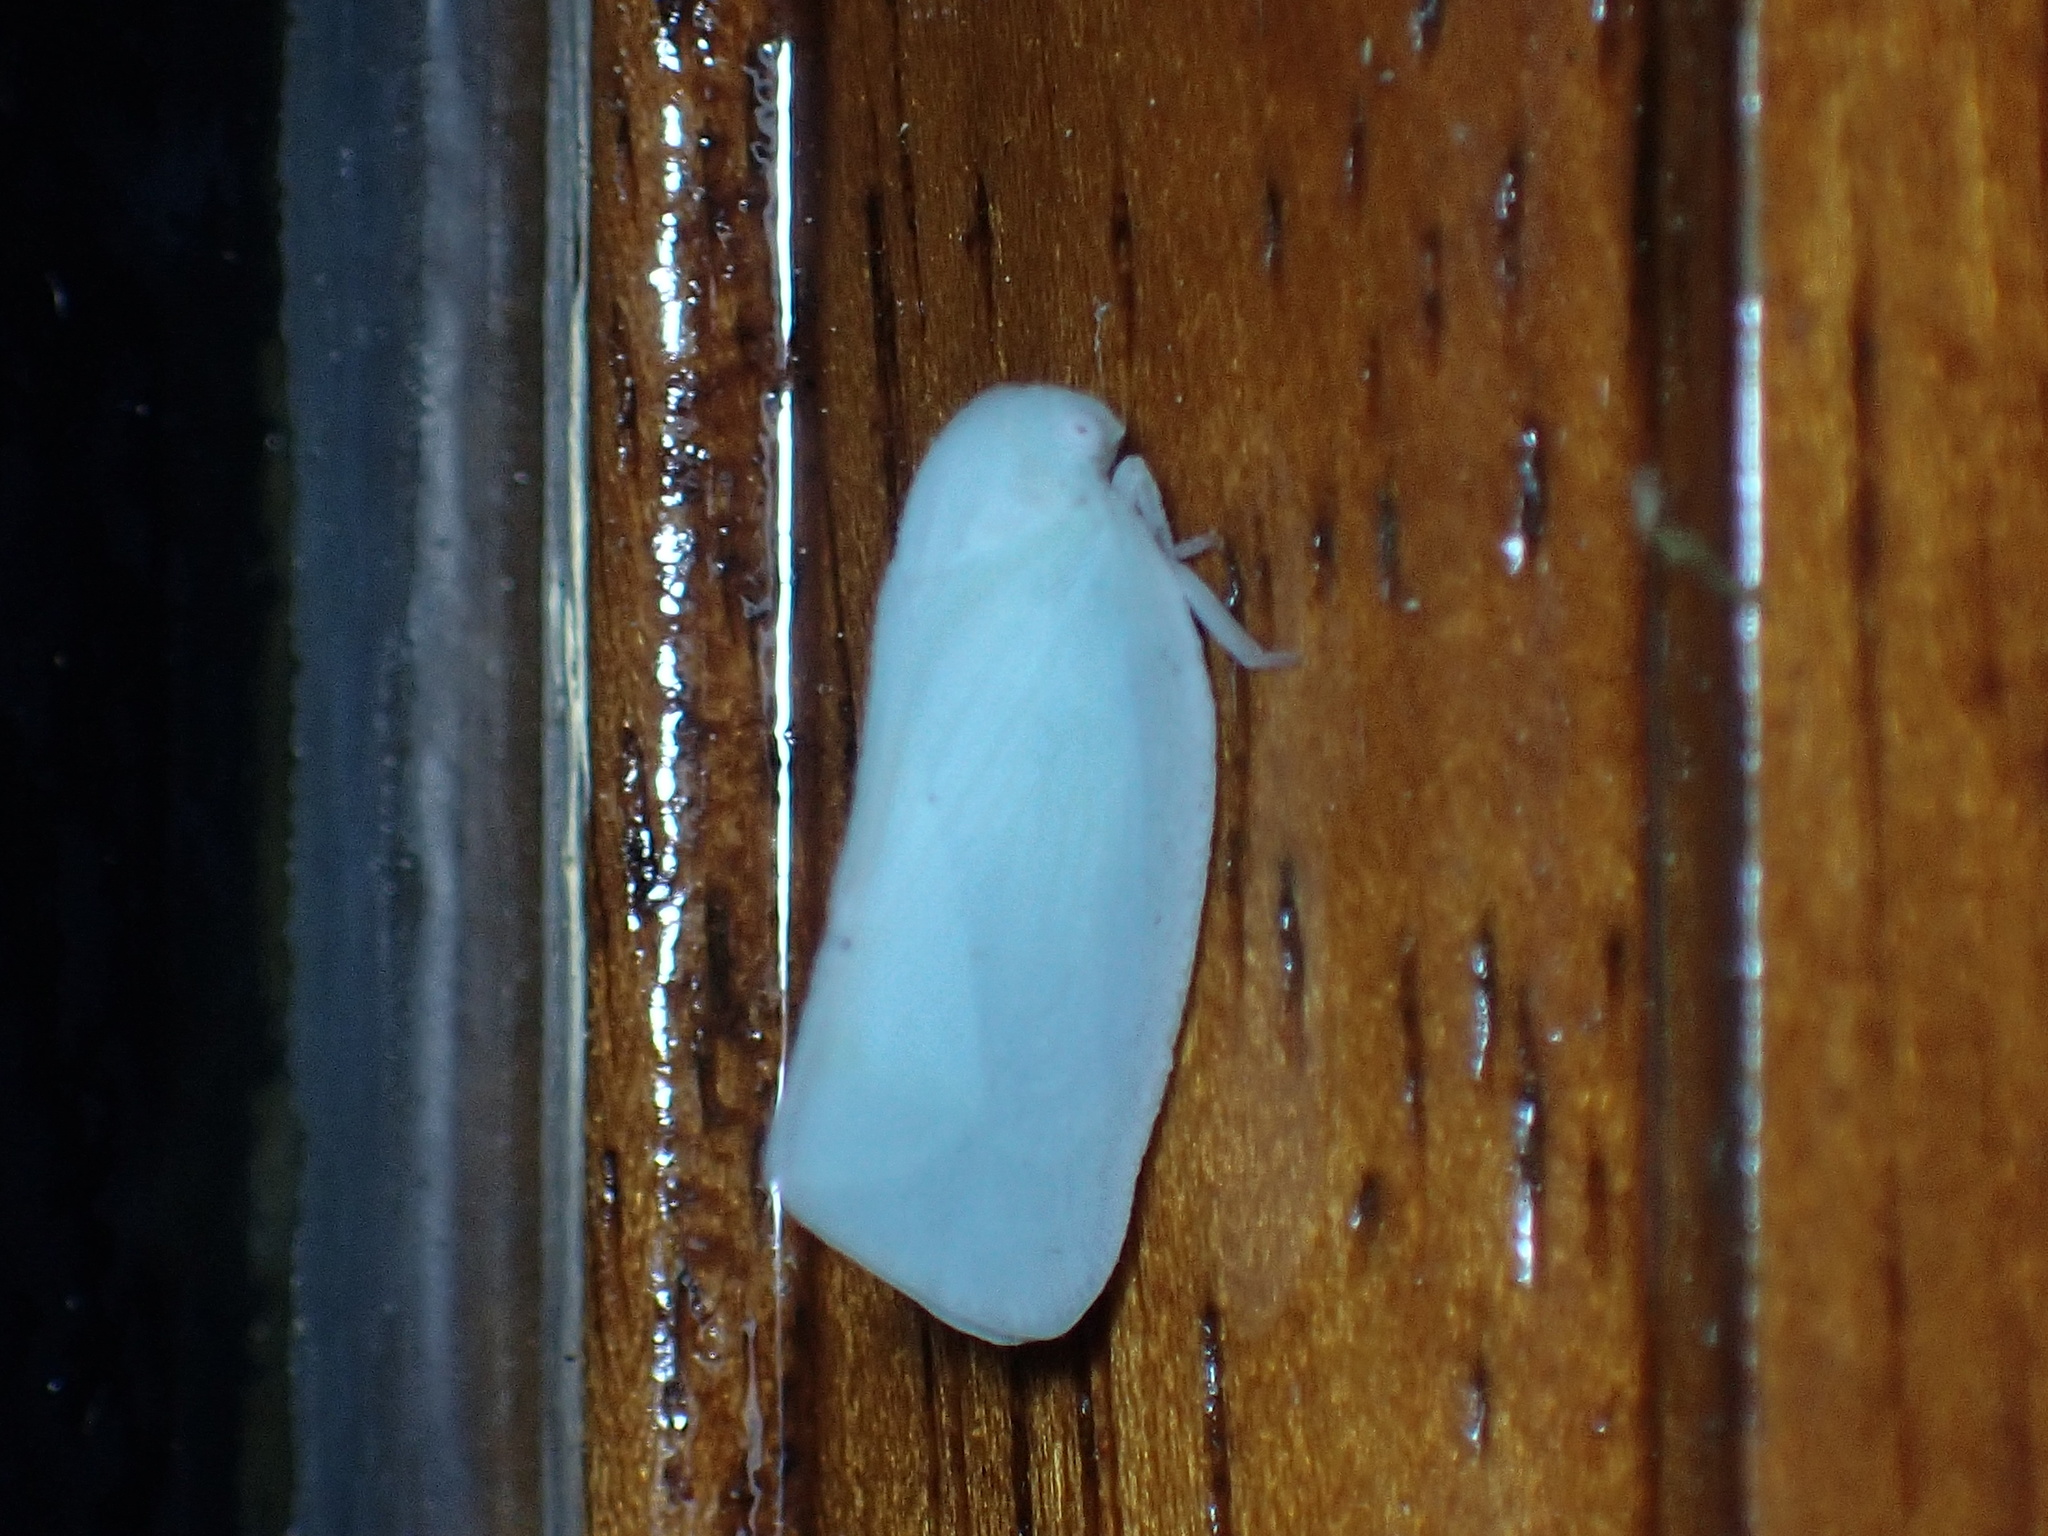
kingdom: Animalia
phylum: Arthropoda
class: Insecta
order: Hemiptera
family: Flatidae
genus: Flatormenis
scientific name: Flatormenis proxima
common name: Northern flatid planthopper
